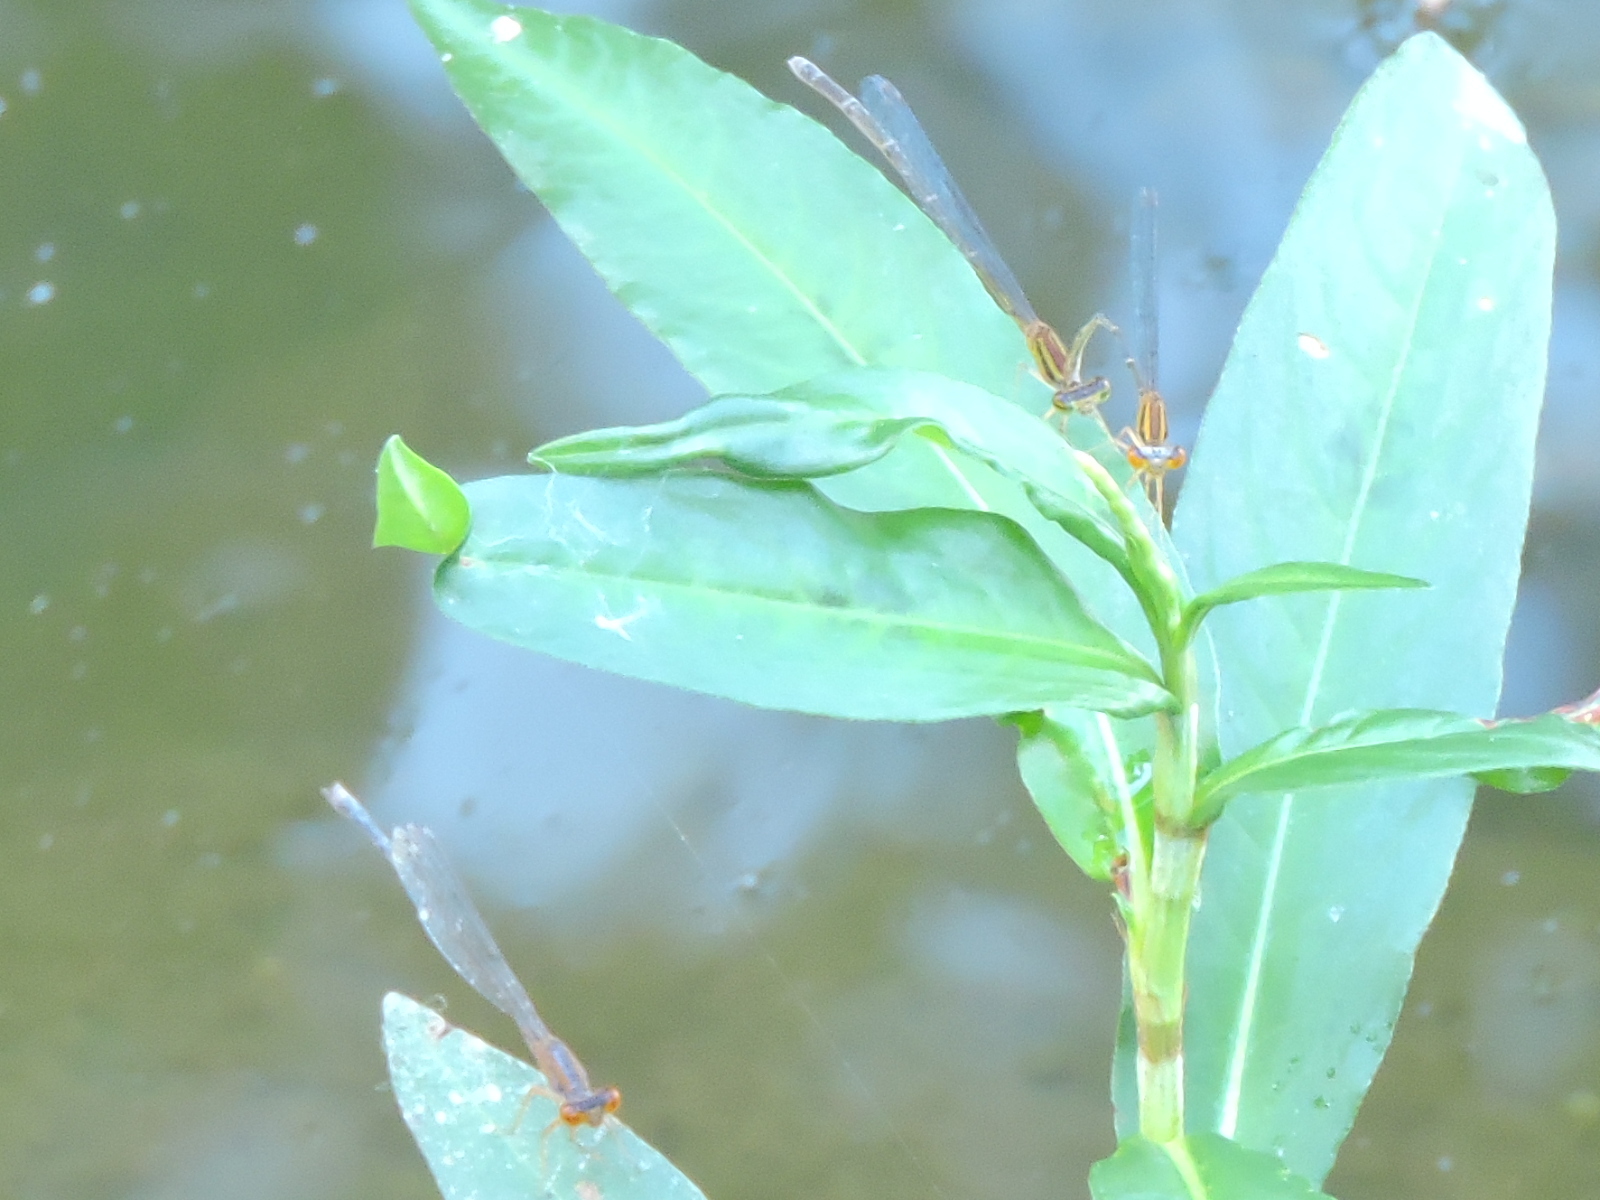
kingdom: Animalia
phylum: Arthropoda
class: Insecta
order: Odonata
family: Coenagrionidae
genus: Enallagma
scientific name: Enallagma signatum
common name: Orange bluet
